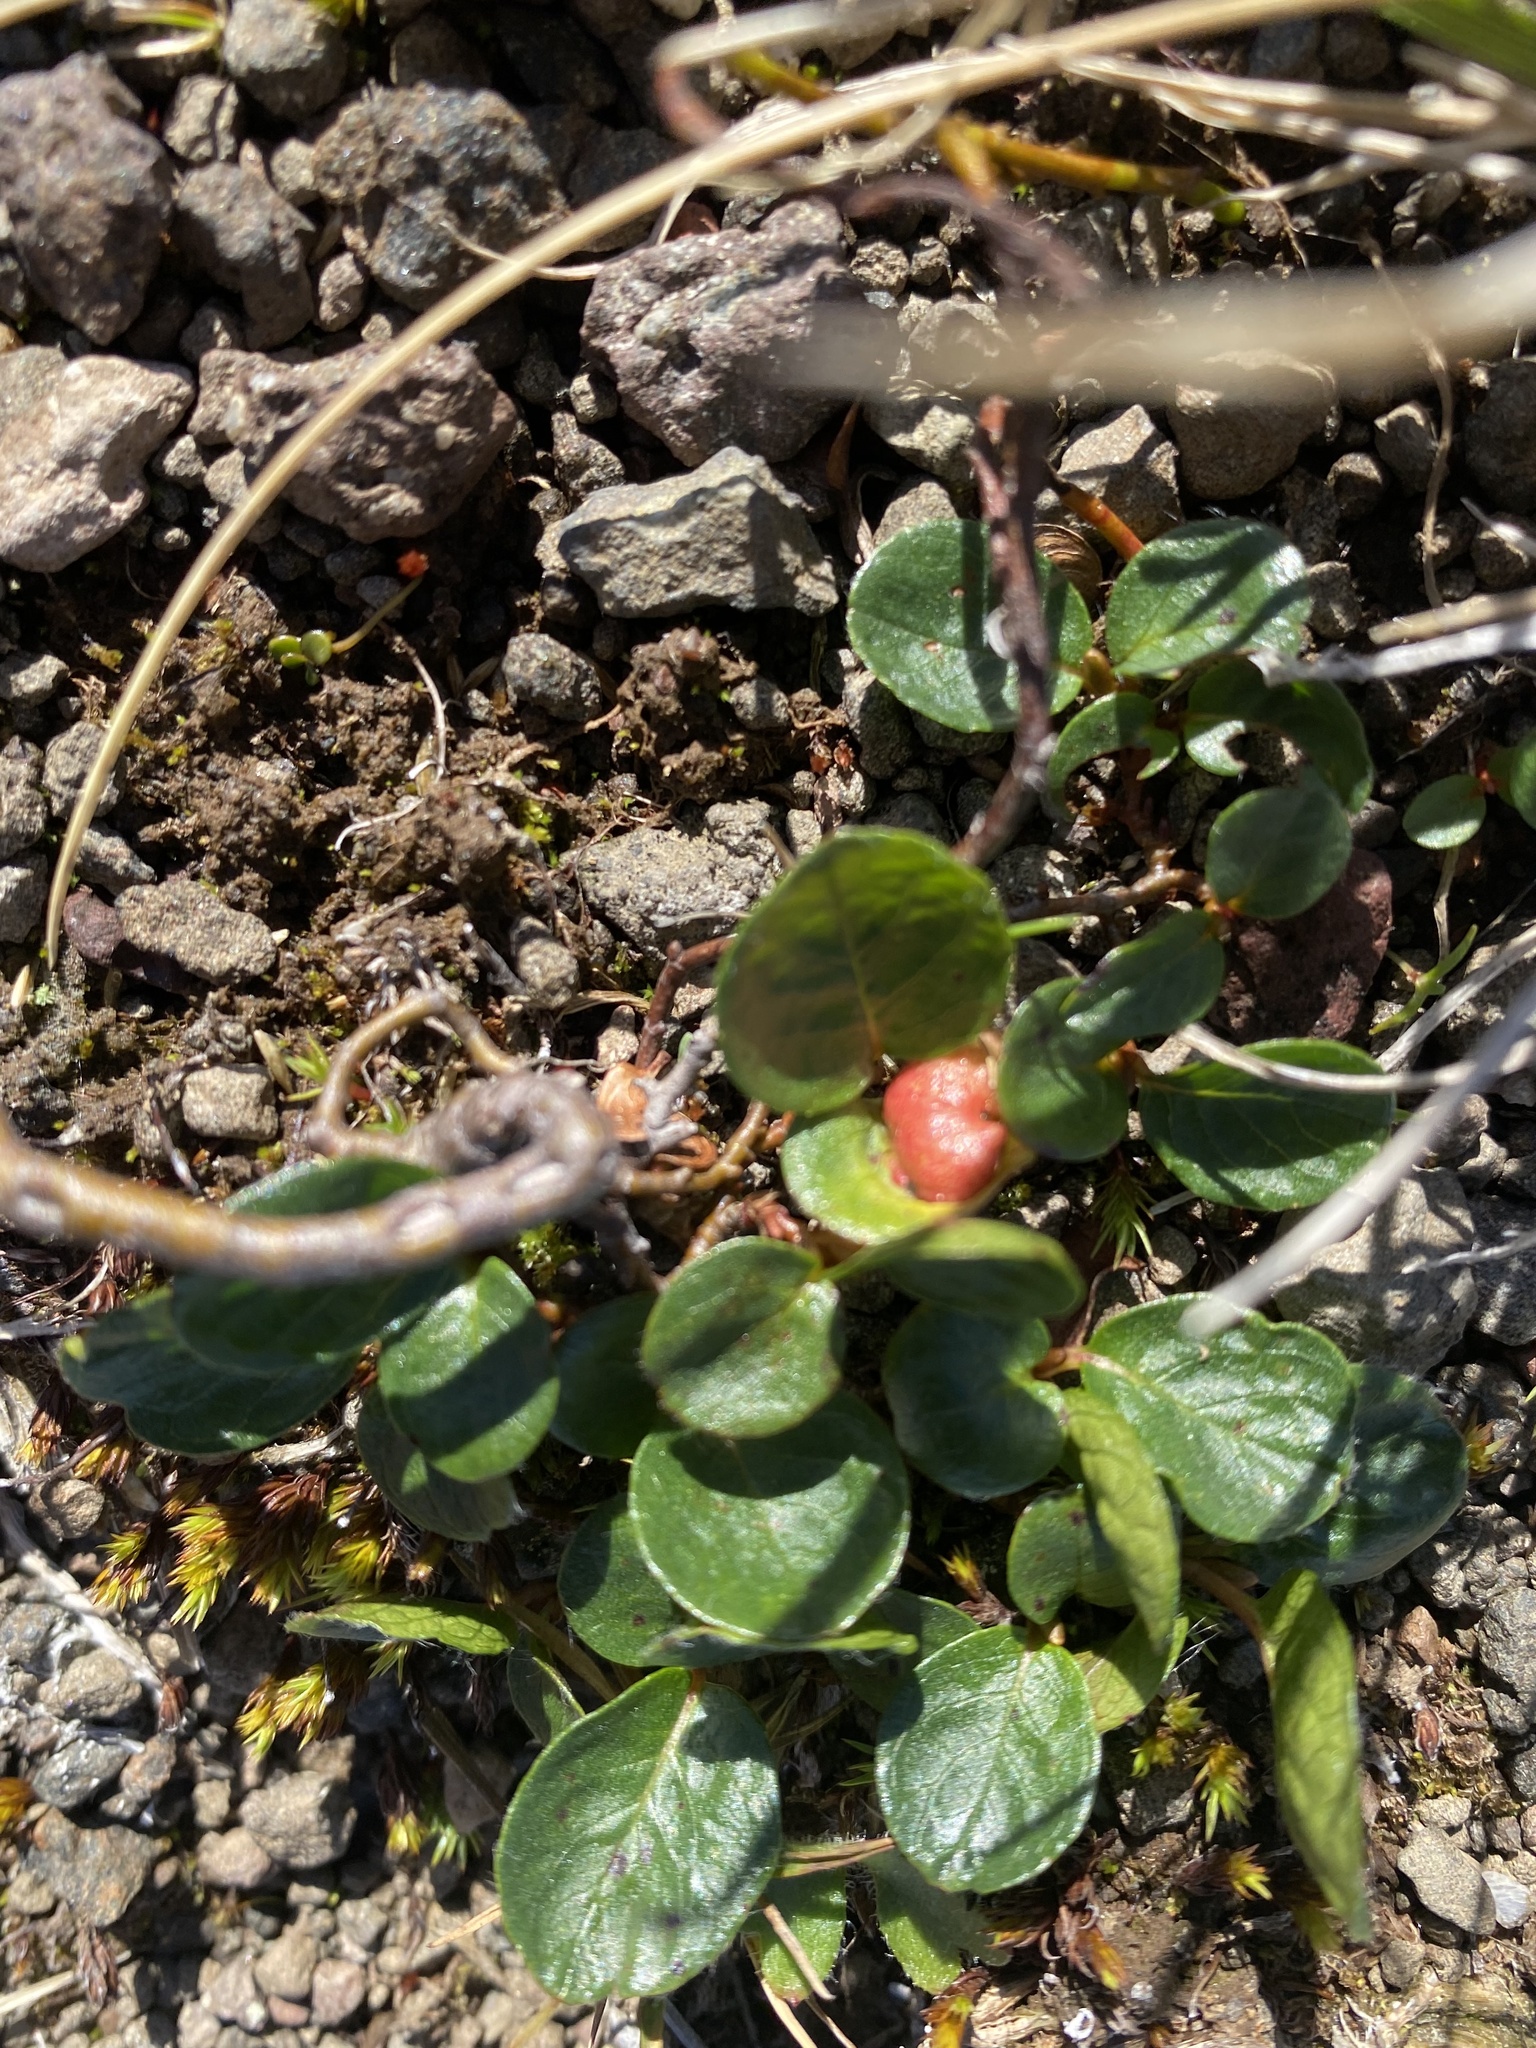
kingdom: Plantae
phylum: Tracheophyta
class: Magnoliopsida
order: Malpighiales
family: Salicaceae
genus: Salix
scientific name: Salix polaris
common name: Polar willow
